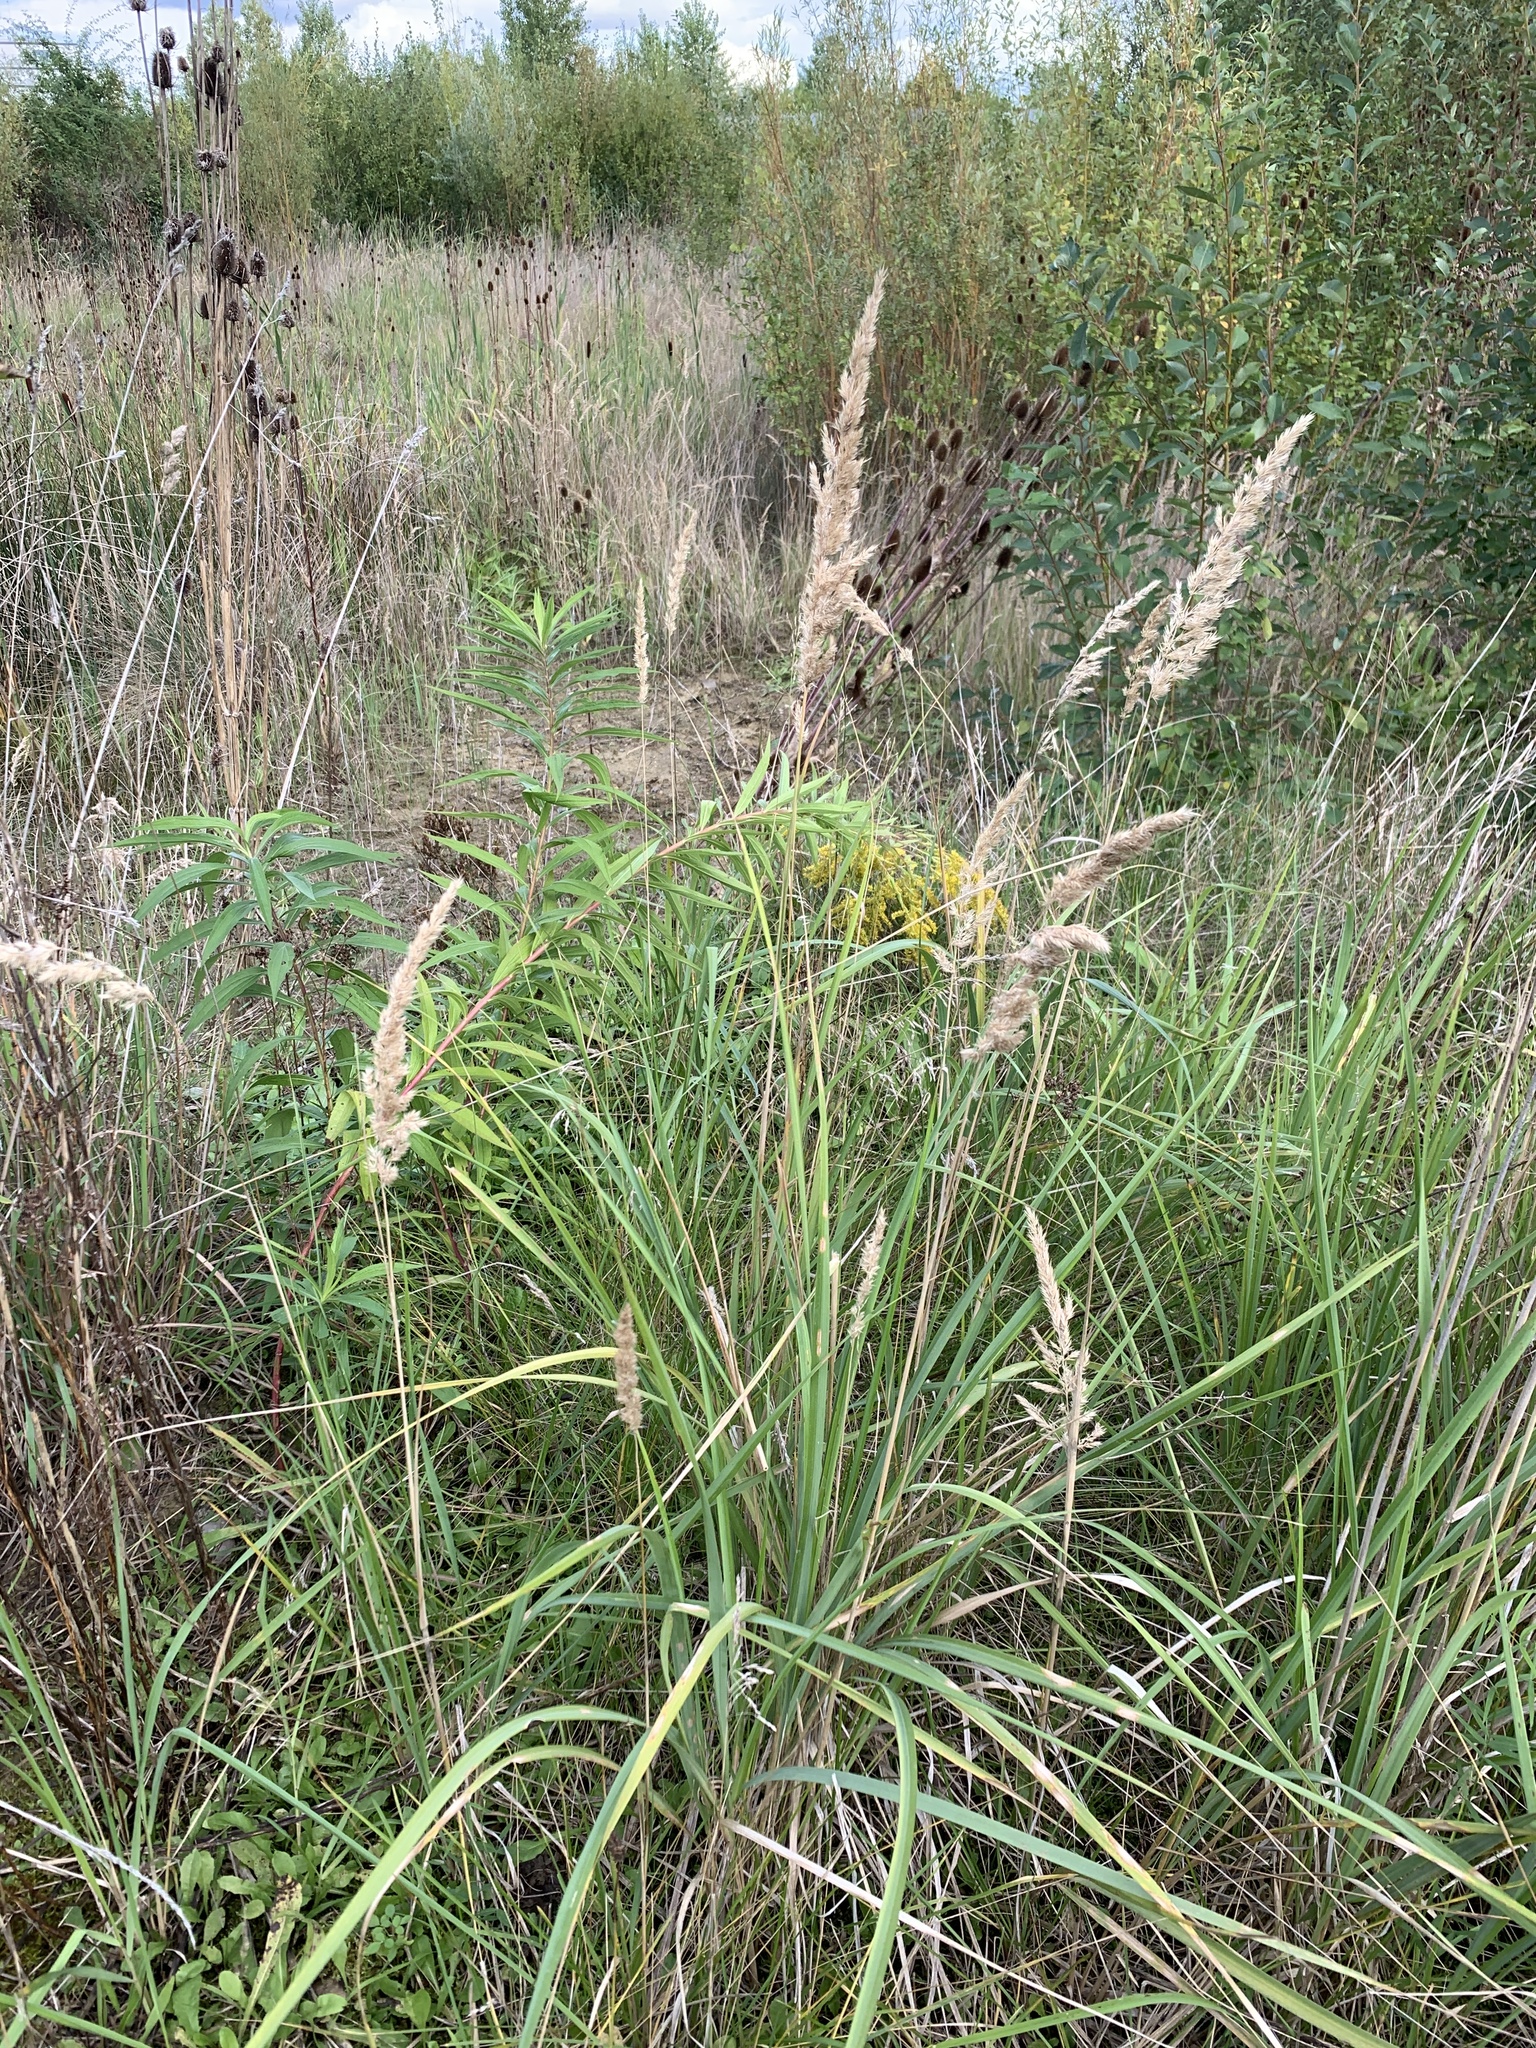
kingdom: Plantae
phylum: Tracheophyta
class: Liliopsida
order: Poales
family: Poaceae
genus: Calamagrostis
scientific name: Calamagrostis epigejos
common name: Wood small-reed
